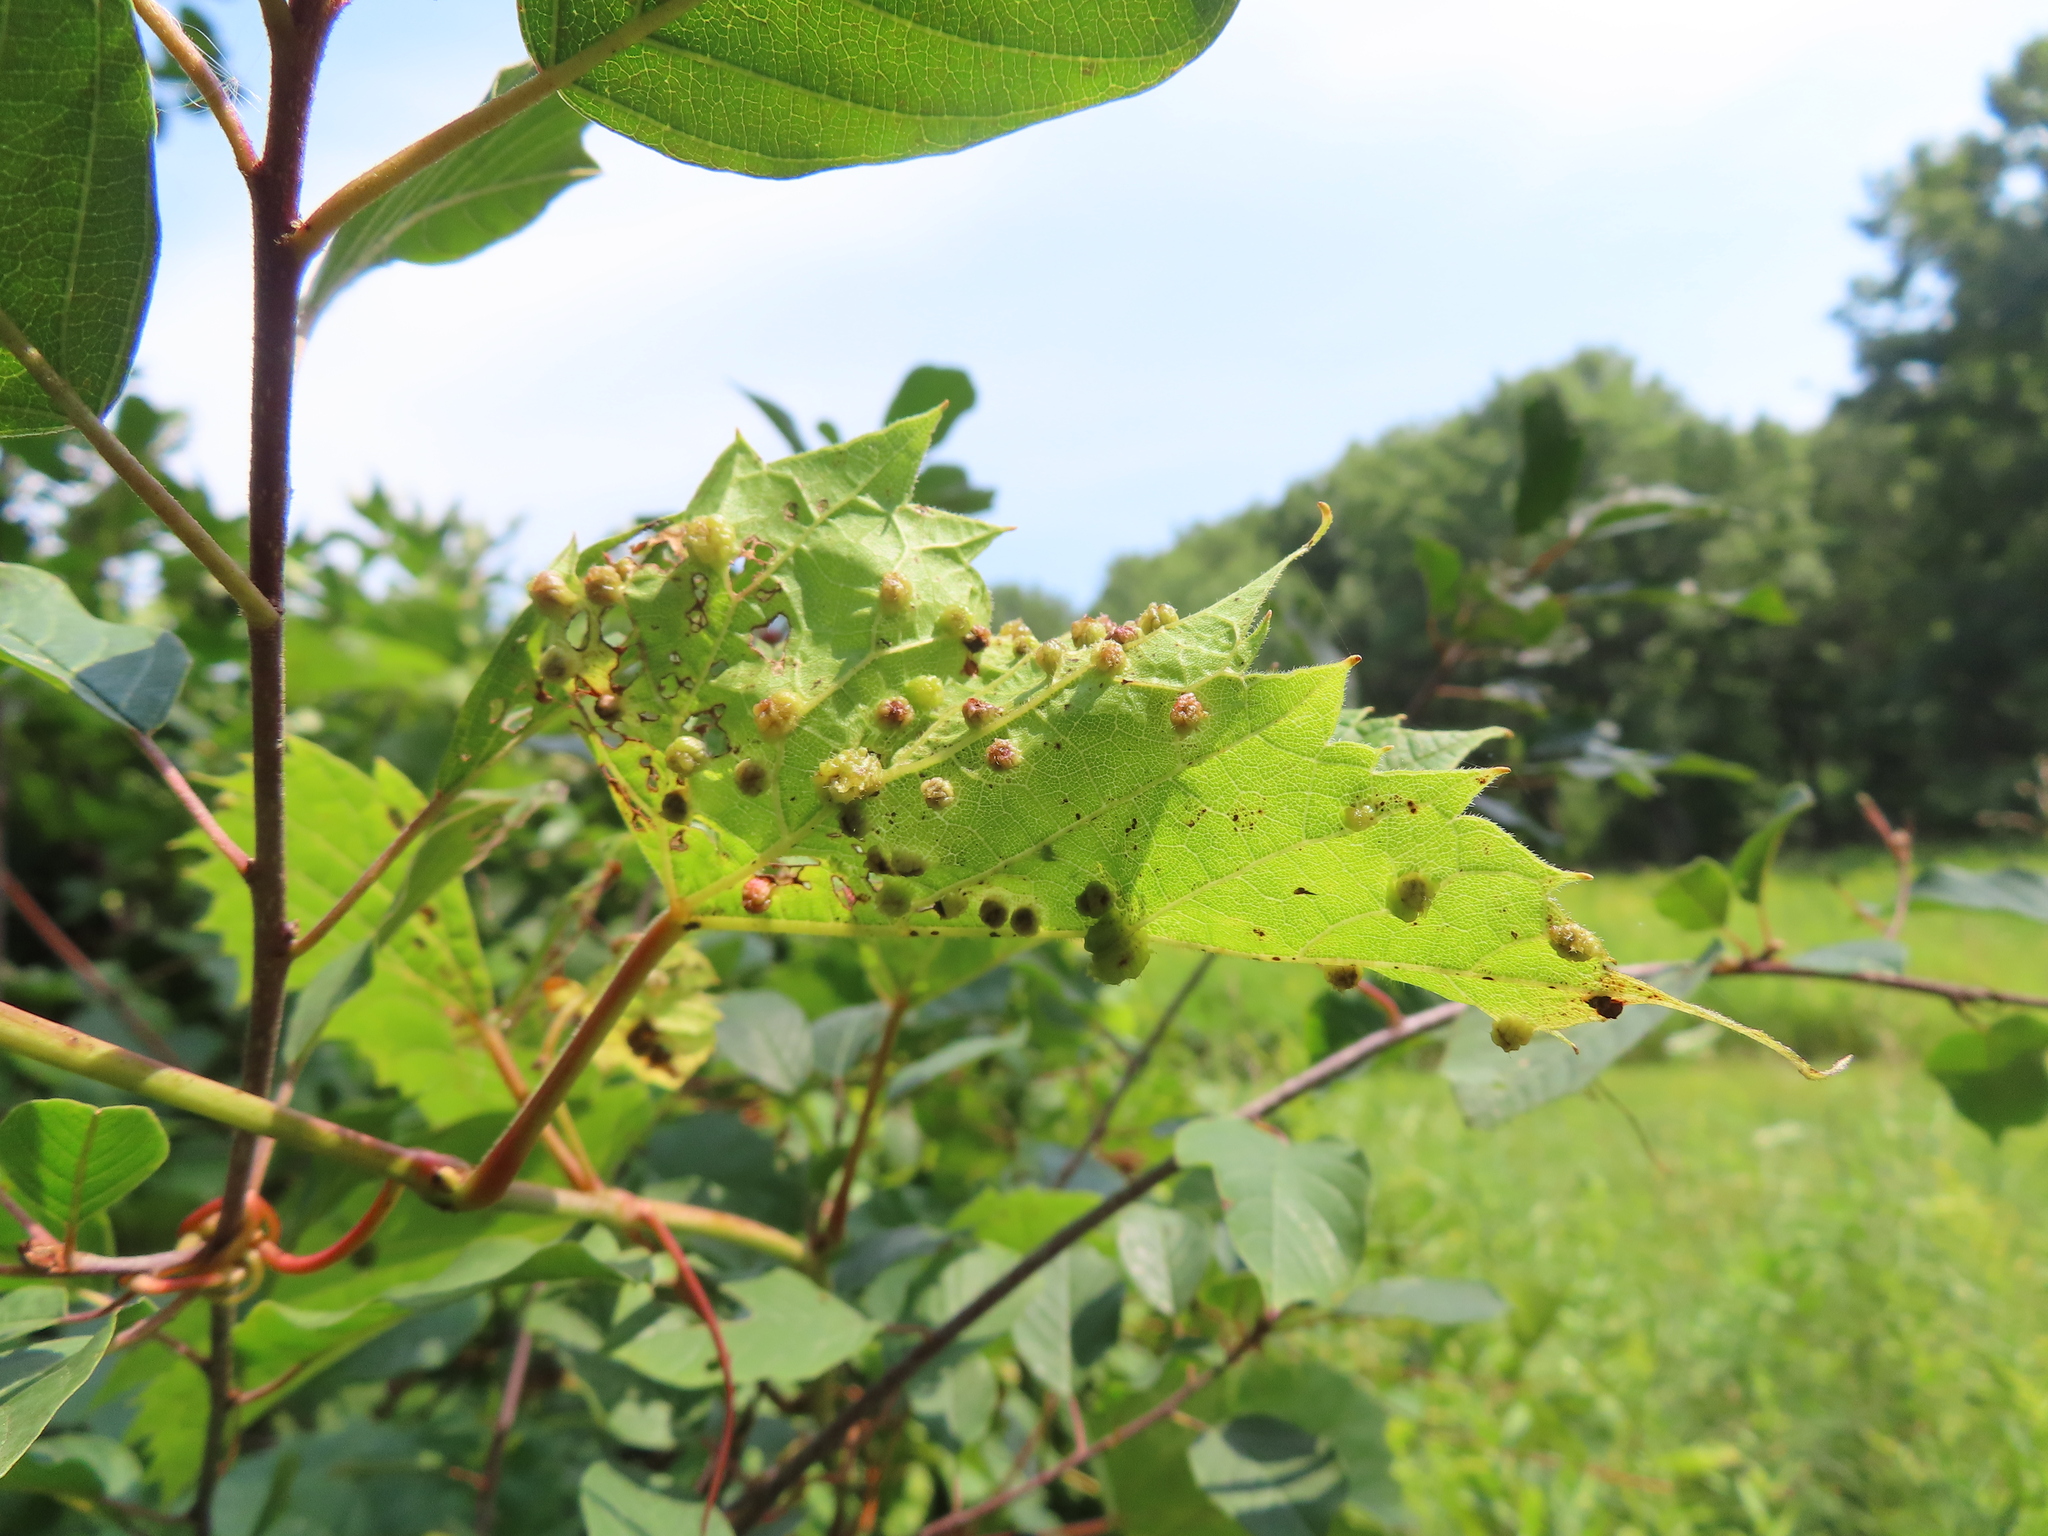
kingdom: Animalia
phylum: Arthropoda
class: Insecta
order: Hemiptera
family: Phylloxeridae
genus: Daktulosphaira
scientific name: Daktulosphaira vitifoliae
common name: Grape phylloxera
